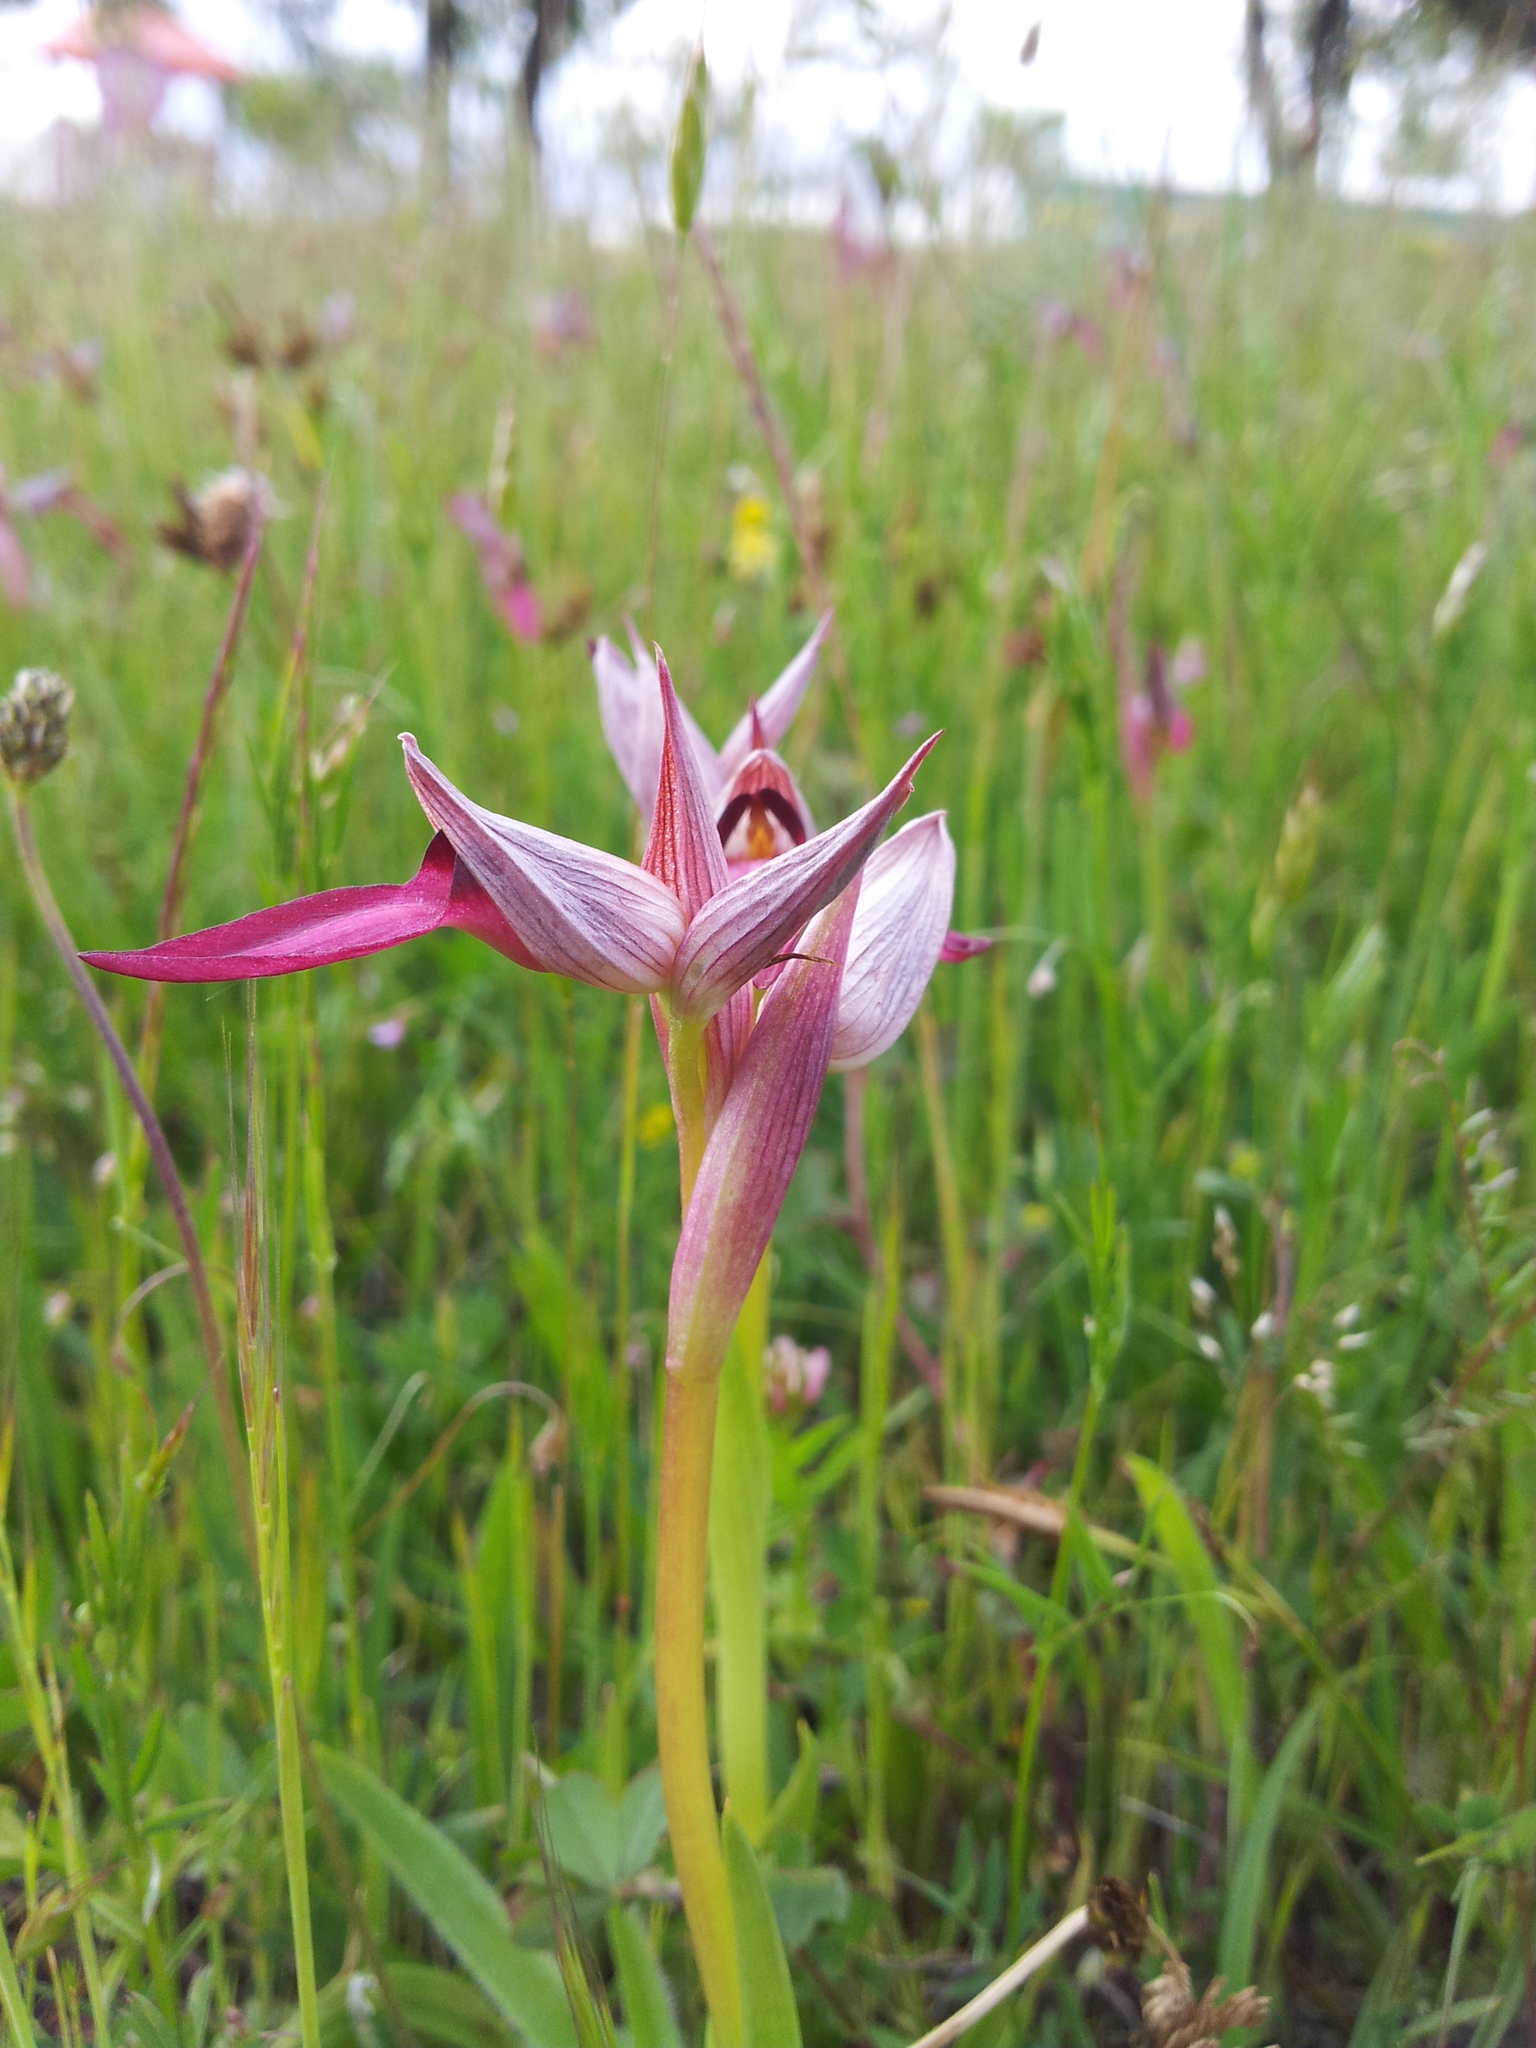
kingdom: Plantae
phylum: Tracheophyta
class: Liliopsida
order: Asparagales
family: Orchidaceae
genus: Serapias
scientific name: Serapias lingua
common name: Tongue-orchid
